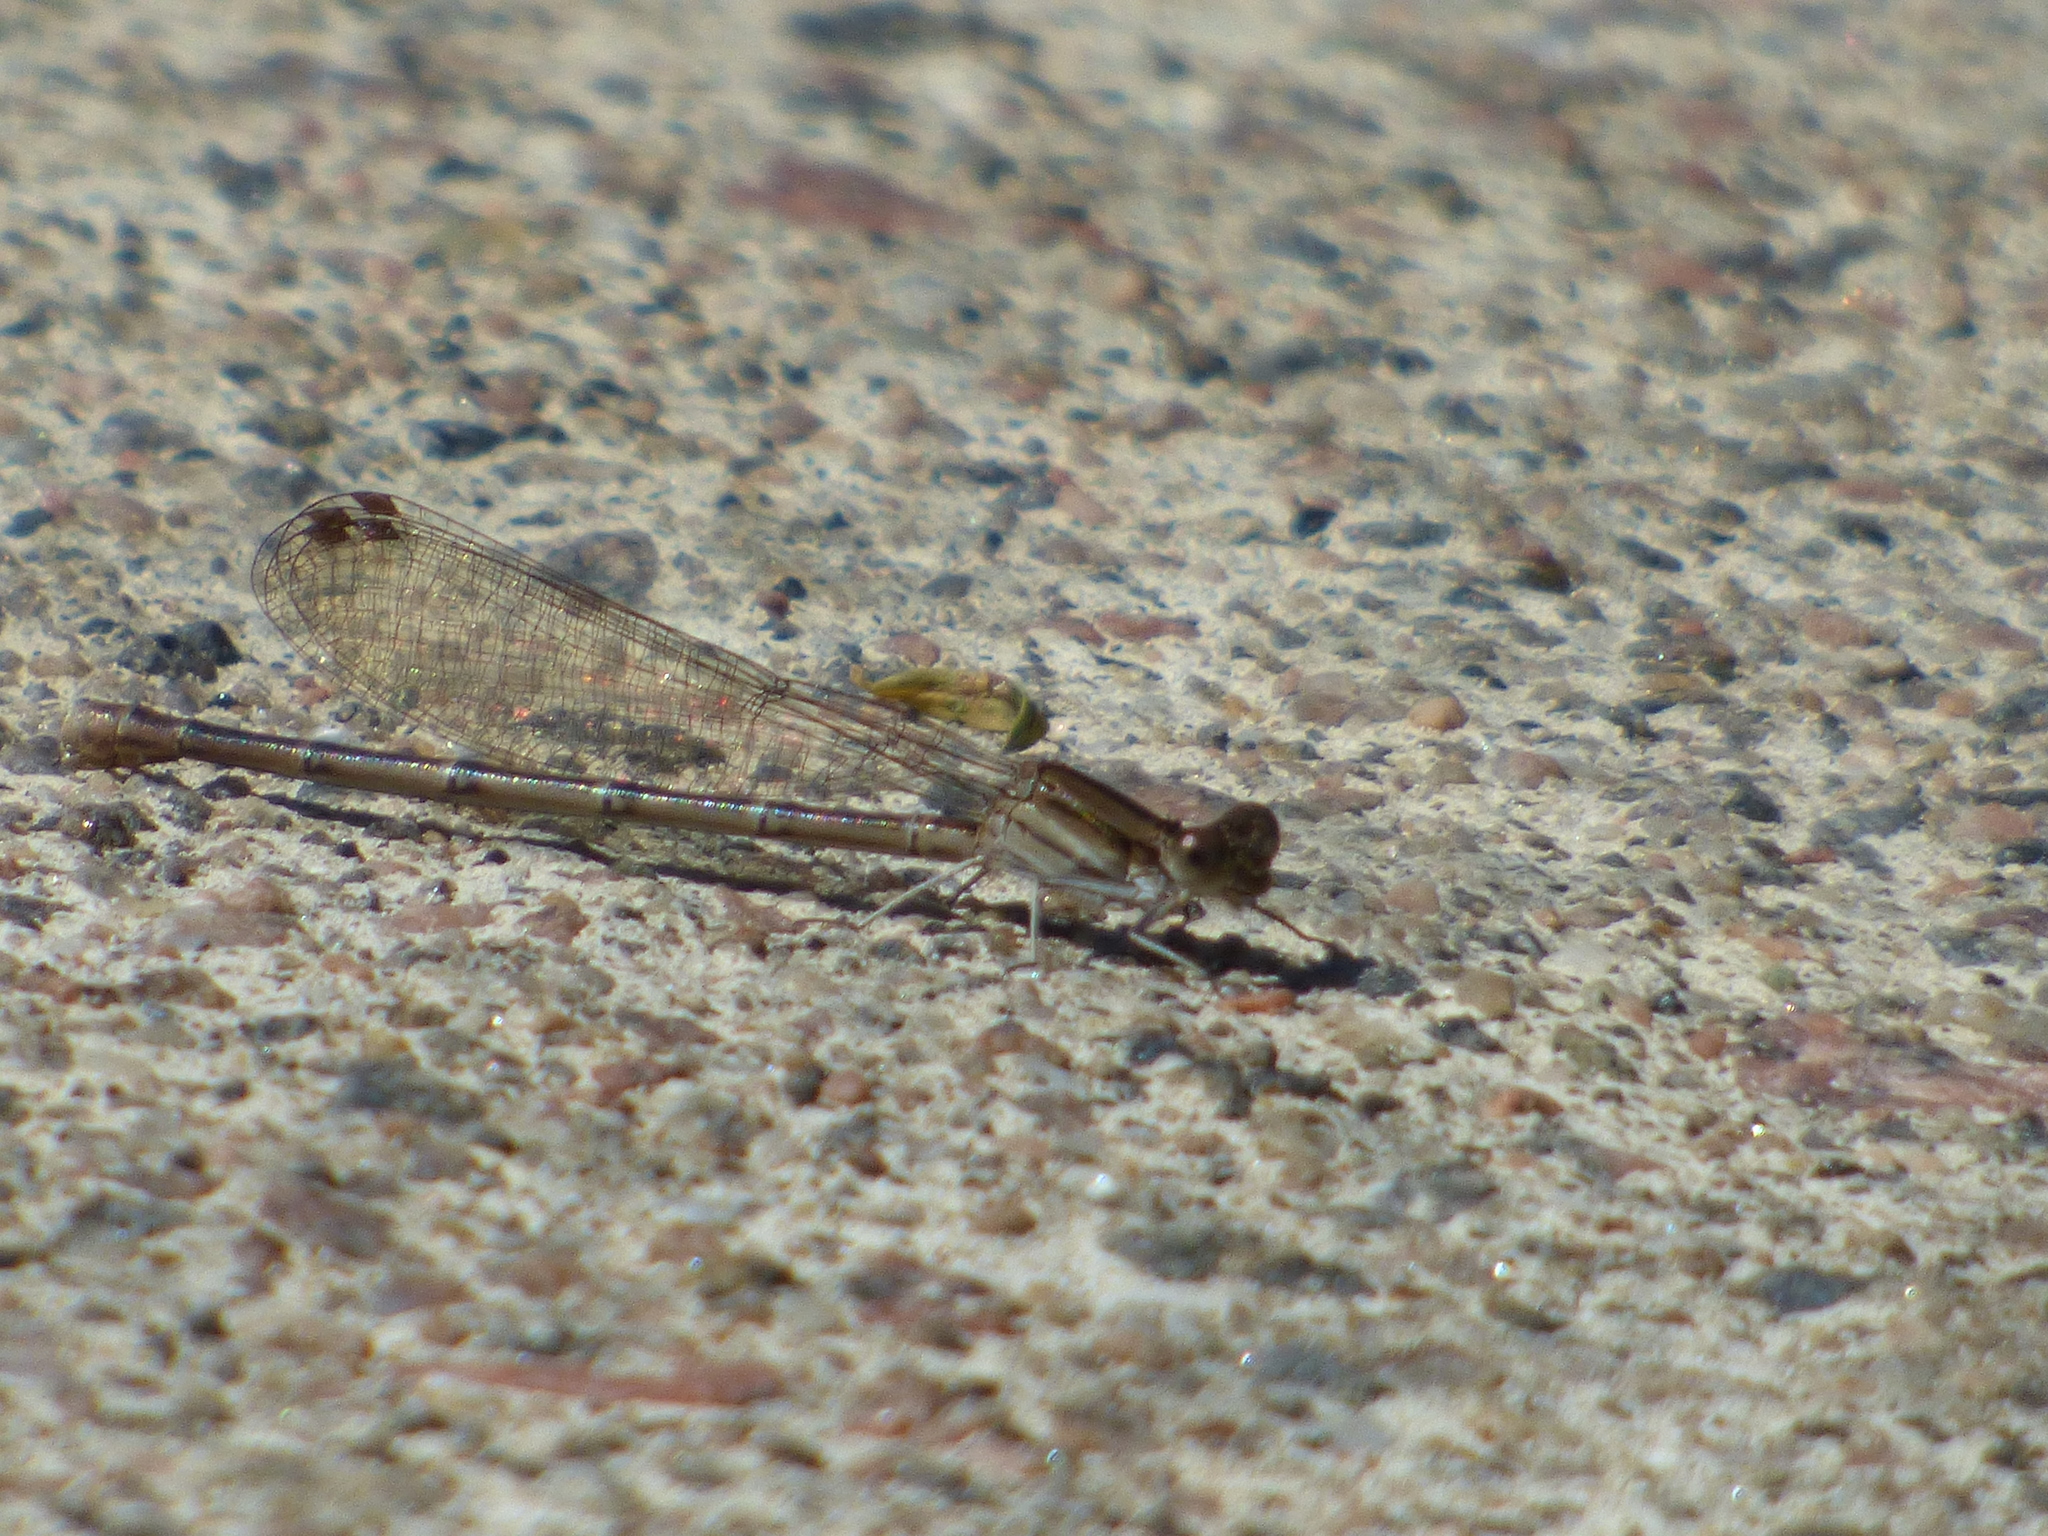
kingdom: Animalia
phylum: Arthropoda
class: Insecta
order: Odonata
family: Coenagrionidae
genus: Argia
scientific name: Argia fumipennis
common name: Variable dancer
